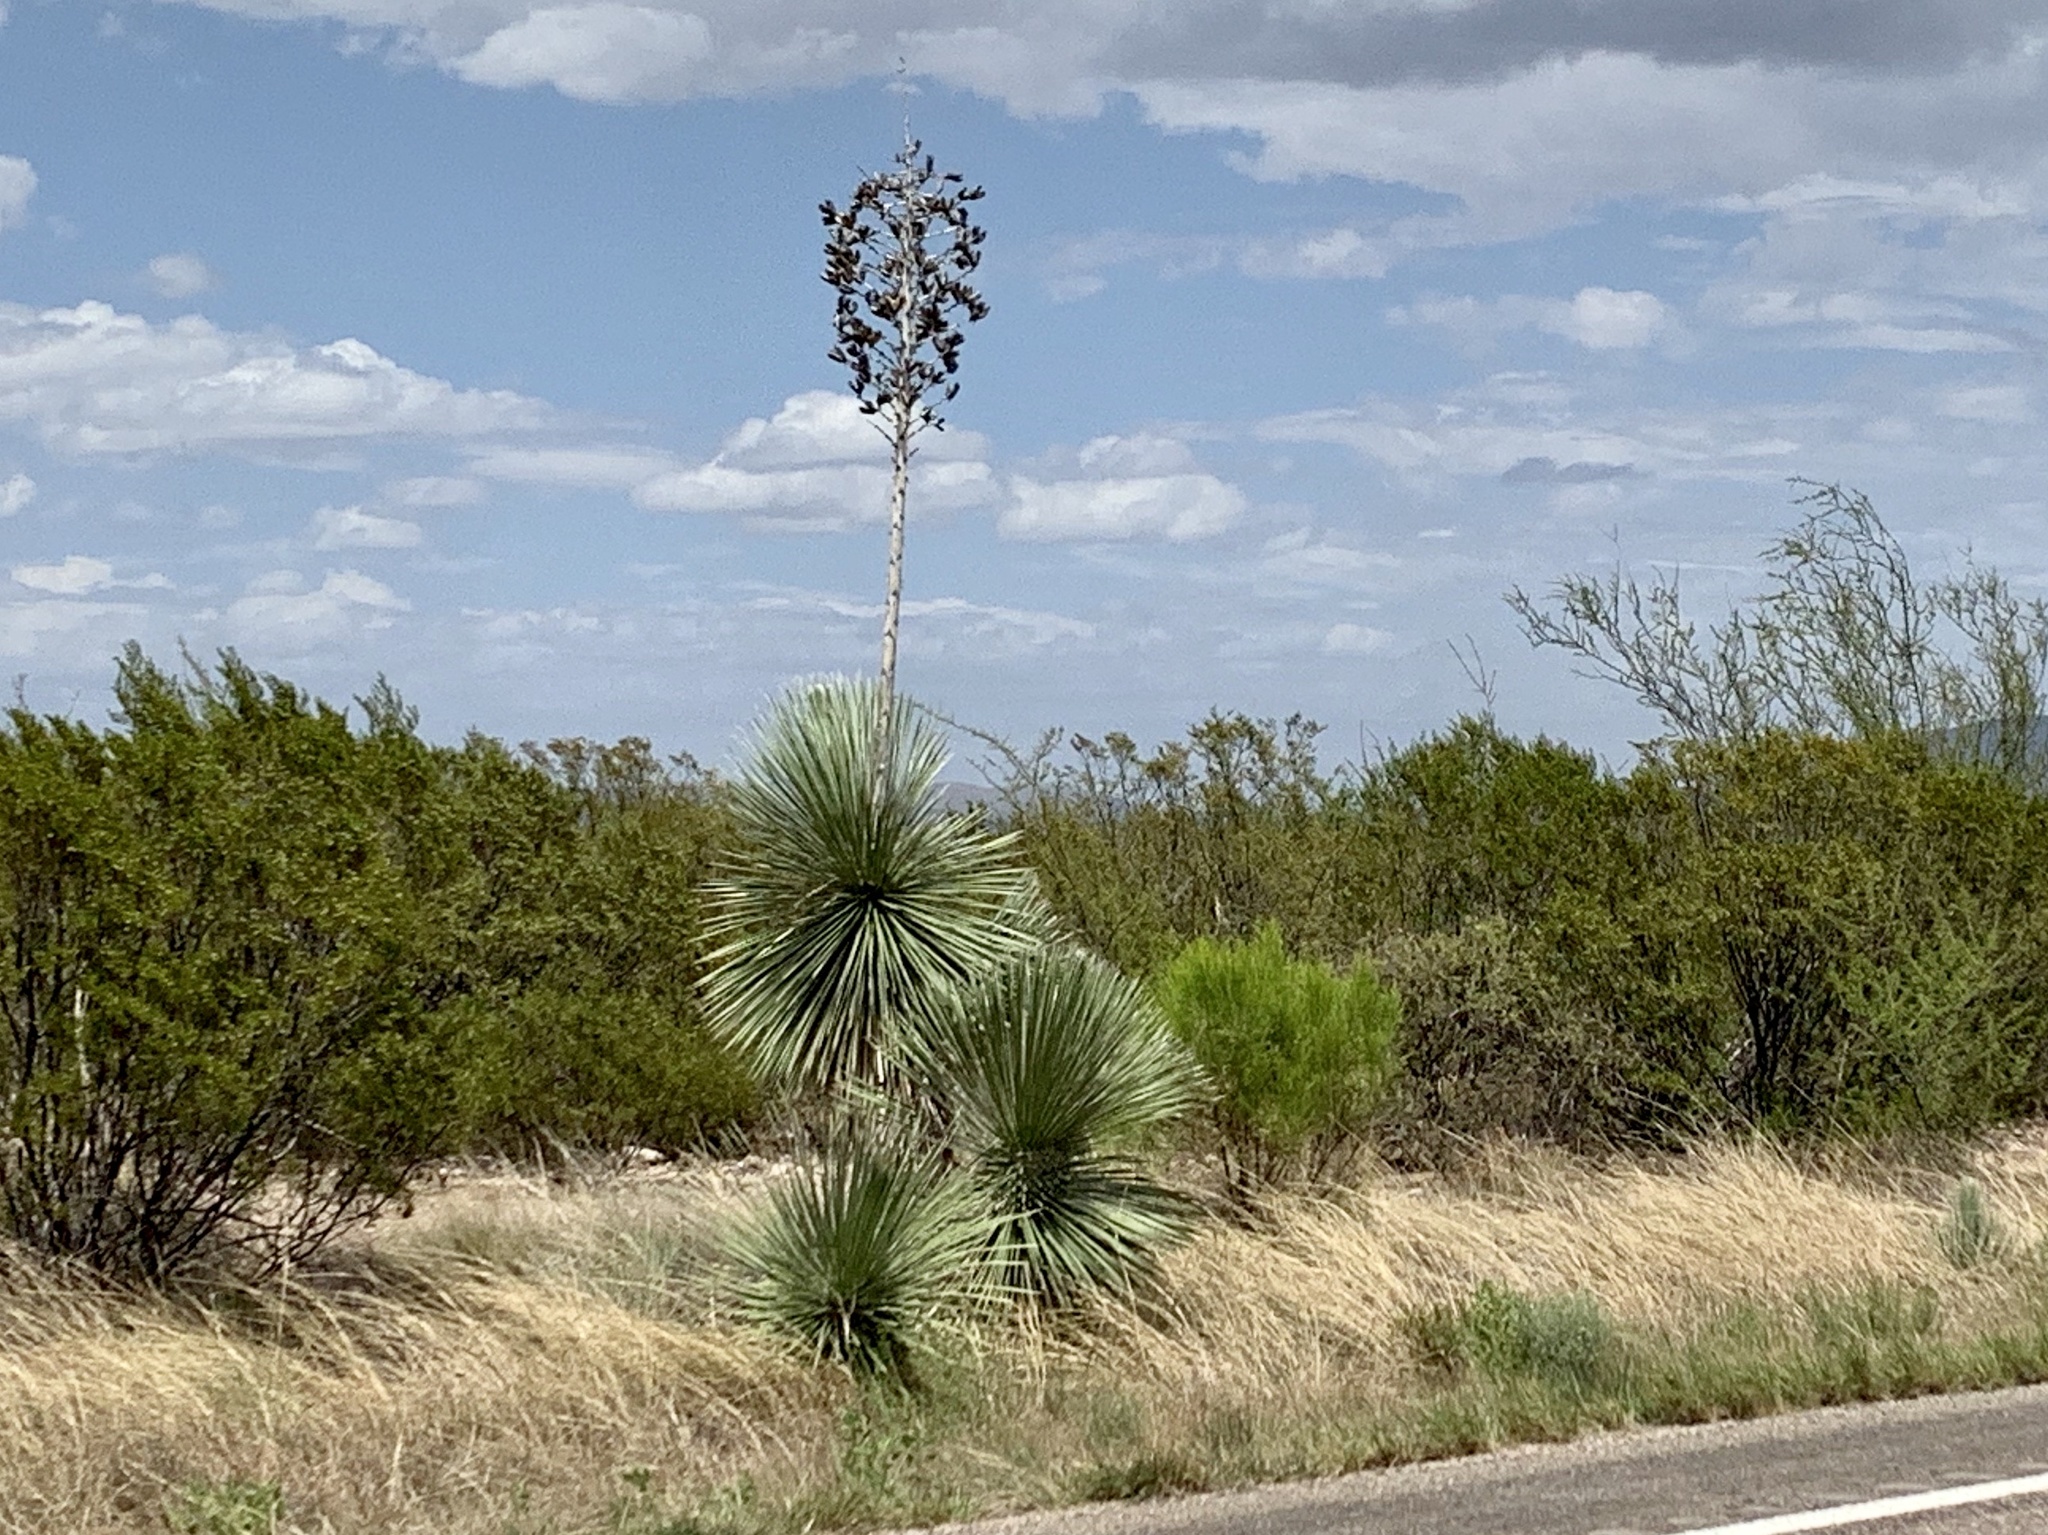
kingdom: Plantae
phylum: Tracheophyta
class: Liliopsida
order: Asparagales
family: Asparagaceae
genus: Yucca
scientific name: Yucca elata
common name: Palmella
